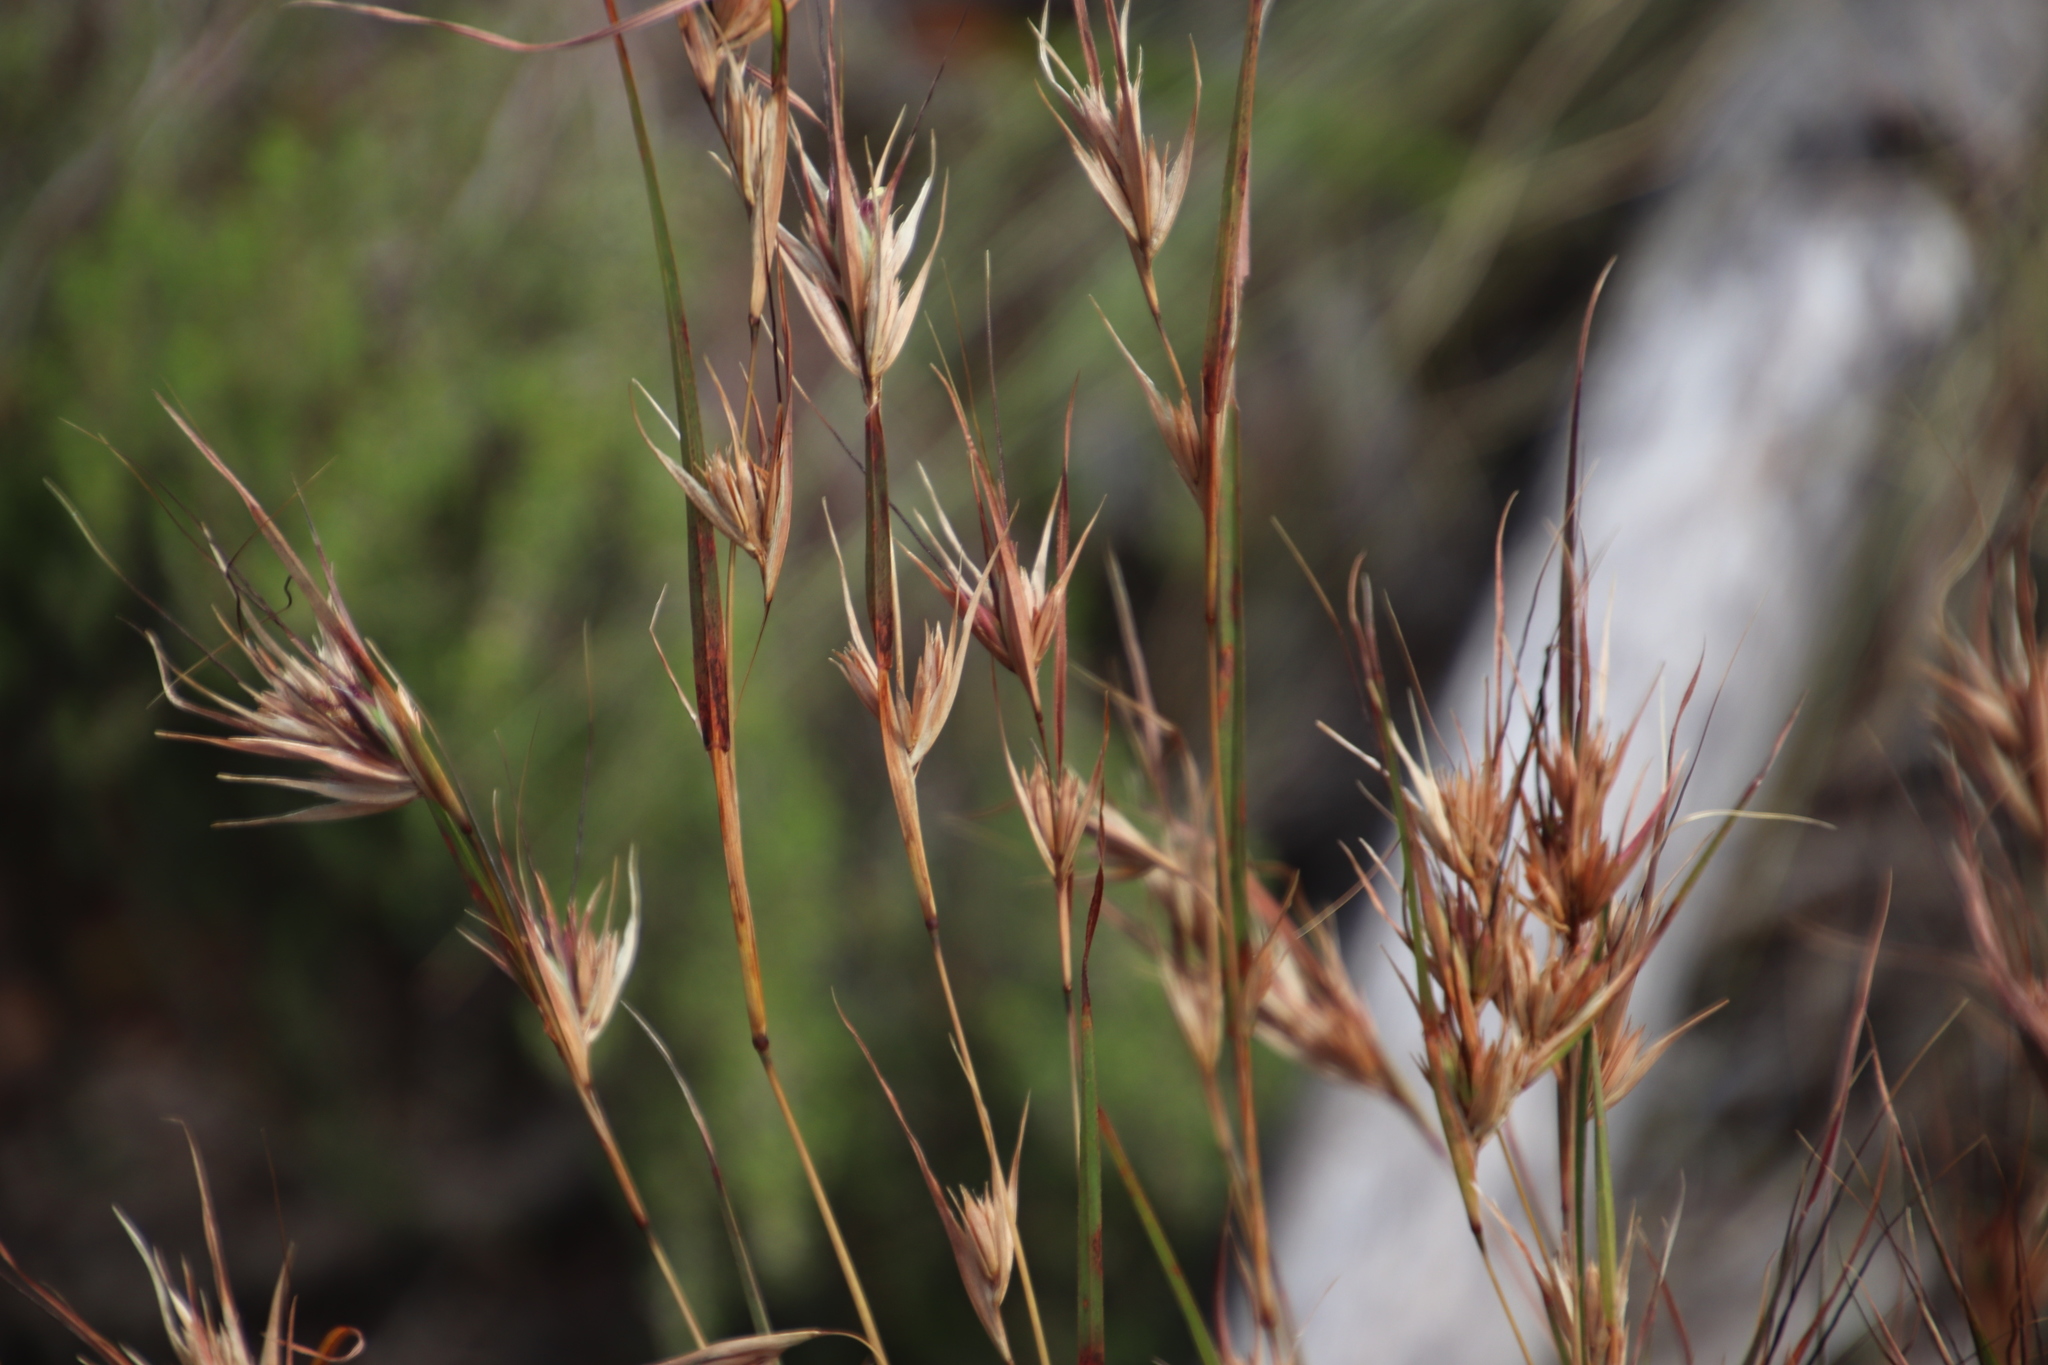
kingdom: Plantae
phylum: Tracheophyta
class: Liliopsida
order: Poales
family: Poaceae
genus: Themeda
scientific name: Themeda triandra
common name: Kangaroo grass
